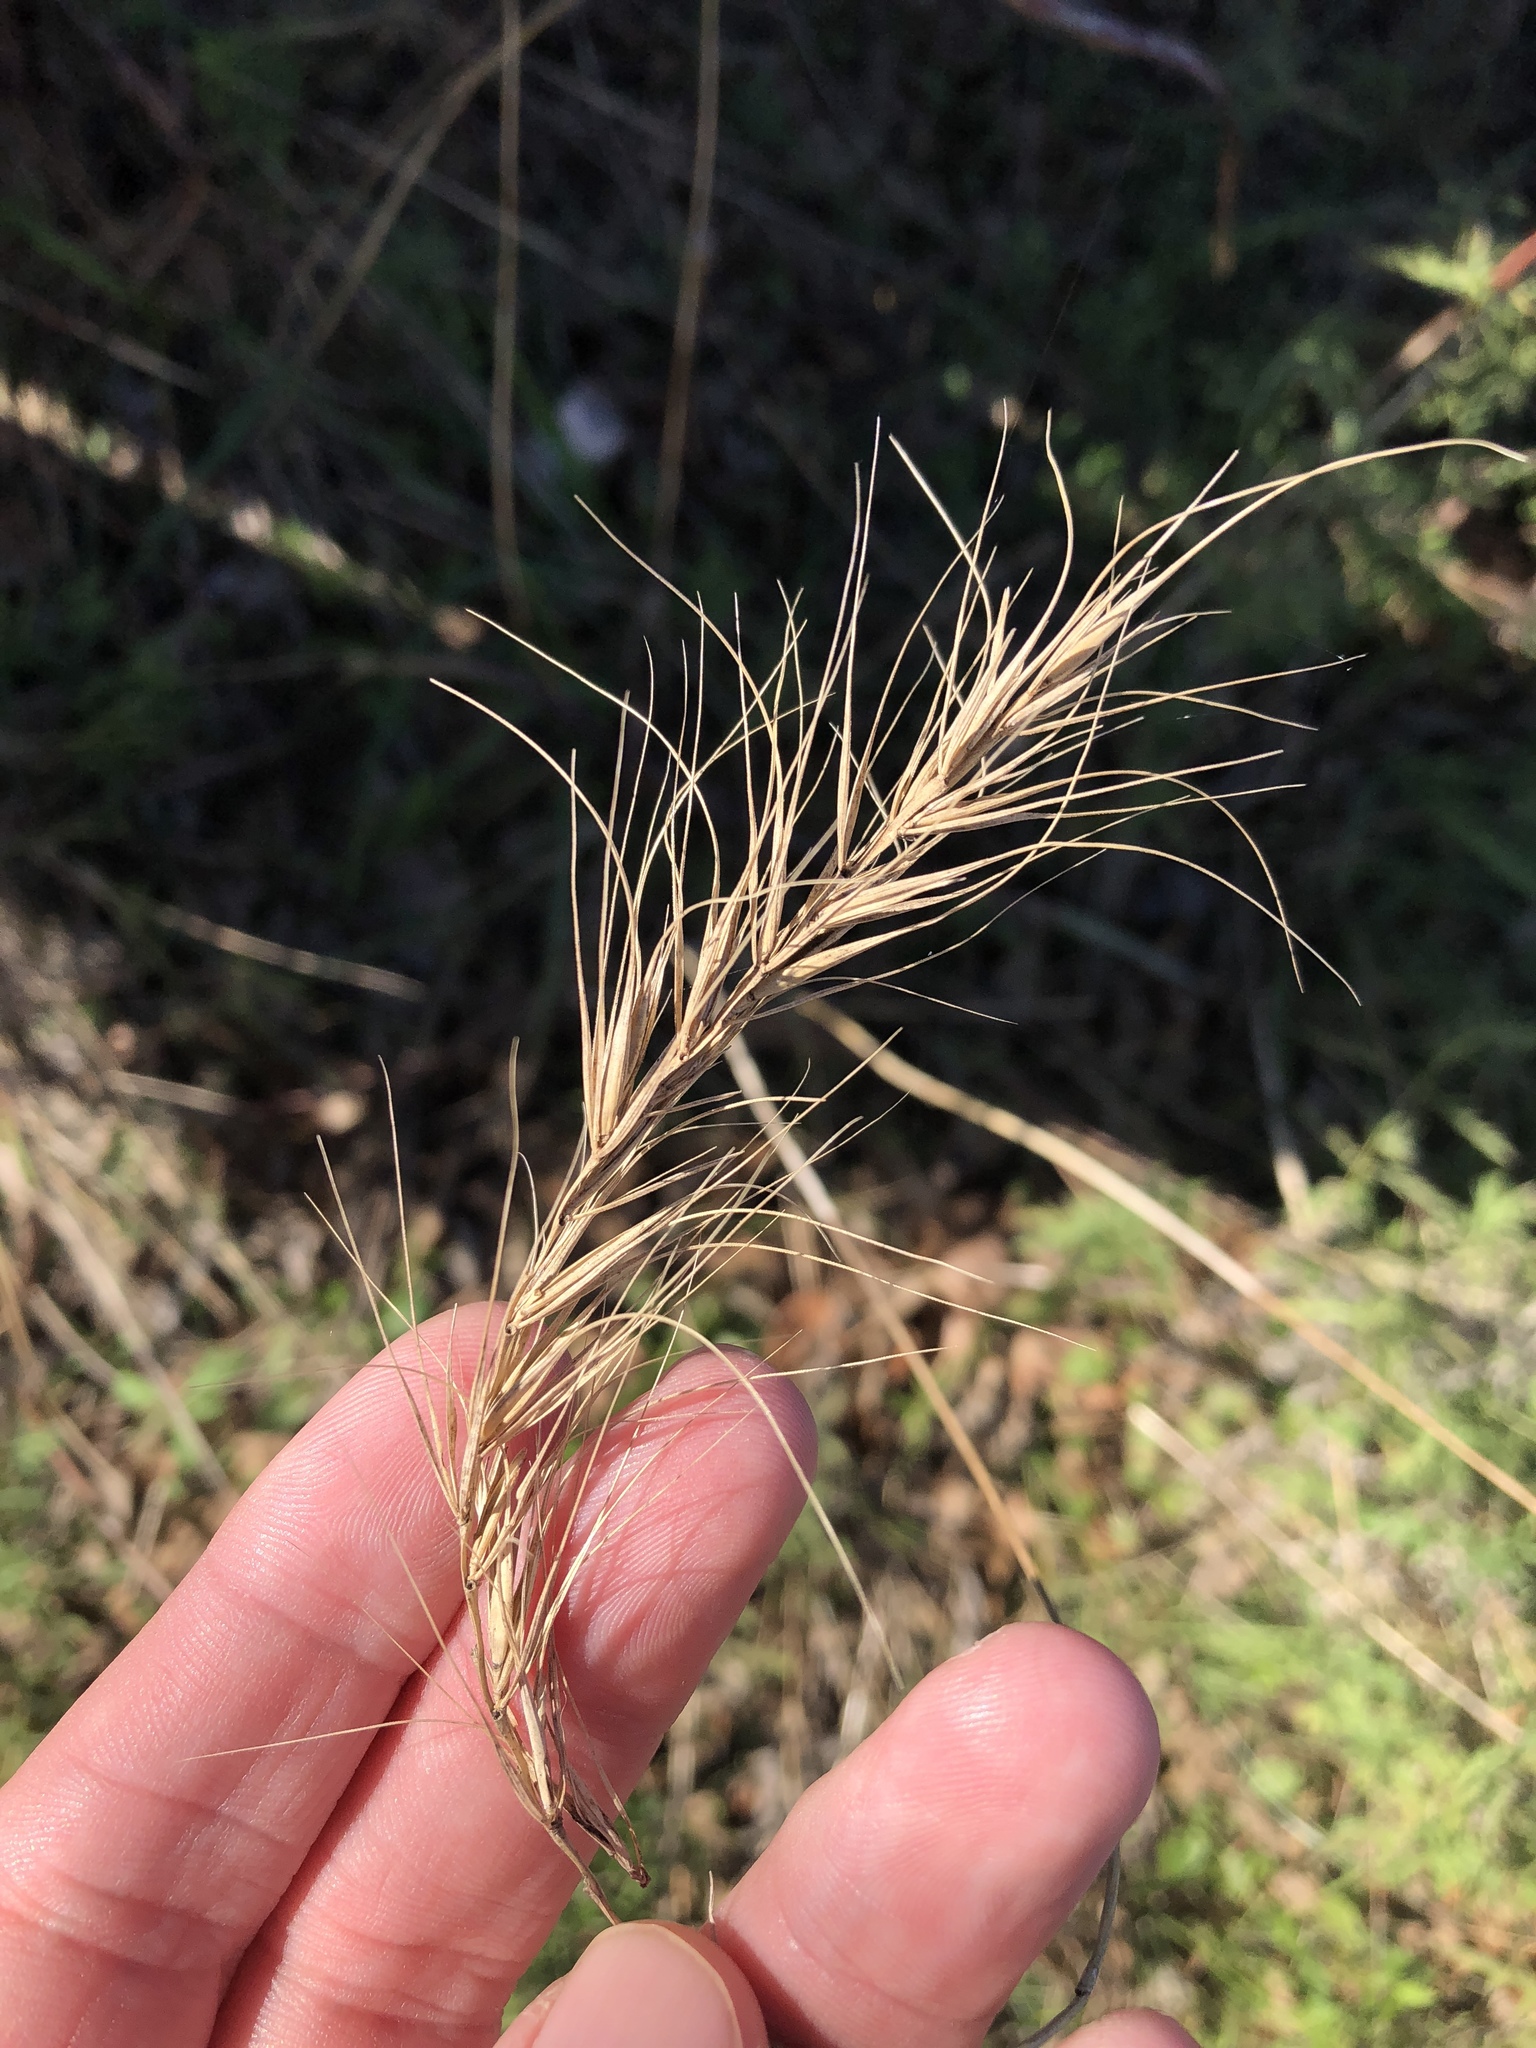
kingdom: Plantae
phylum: Tracheophyta
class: Liliopsida
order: Poales
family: Poaceae
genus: Elymus
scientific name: Elymus canadensis
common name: Canada wild rye
